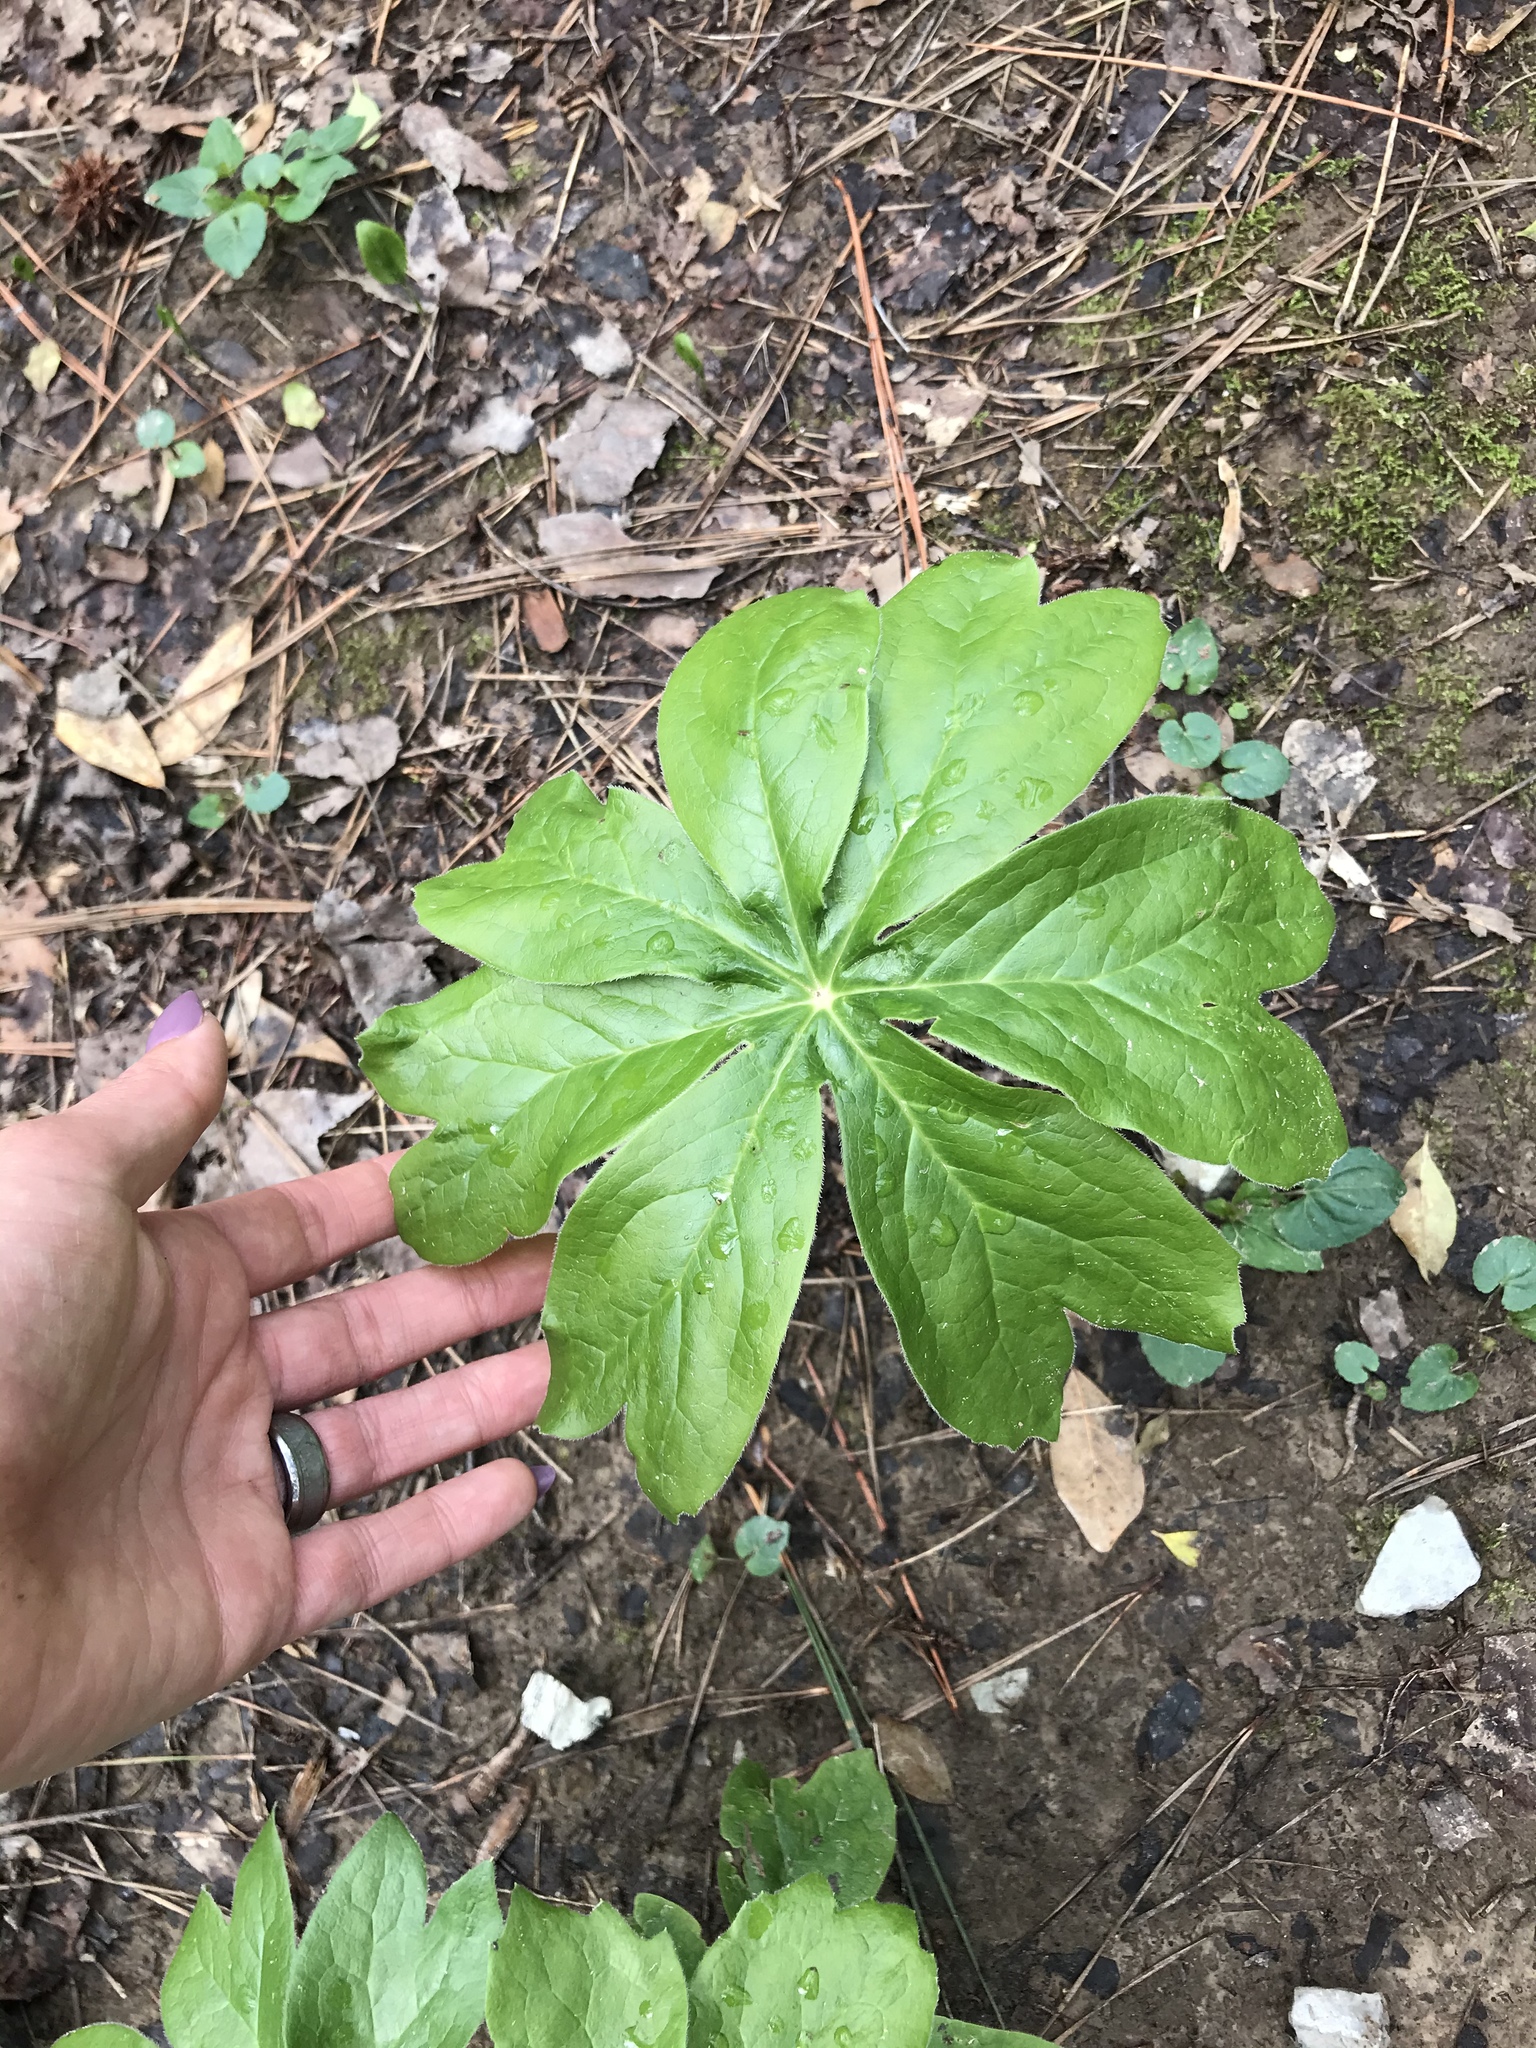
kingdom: Plantae
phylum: Tracheophyta
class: Magnoliopsida
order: Ranunculales
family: Berberidaceae
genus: Podophyllum
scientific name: Podophyllum peltatum
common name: Wild mandrake
